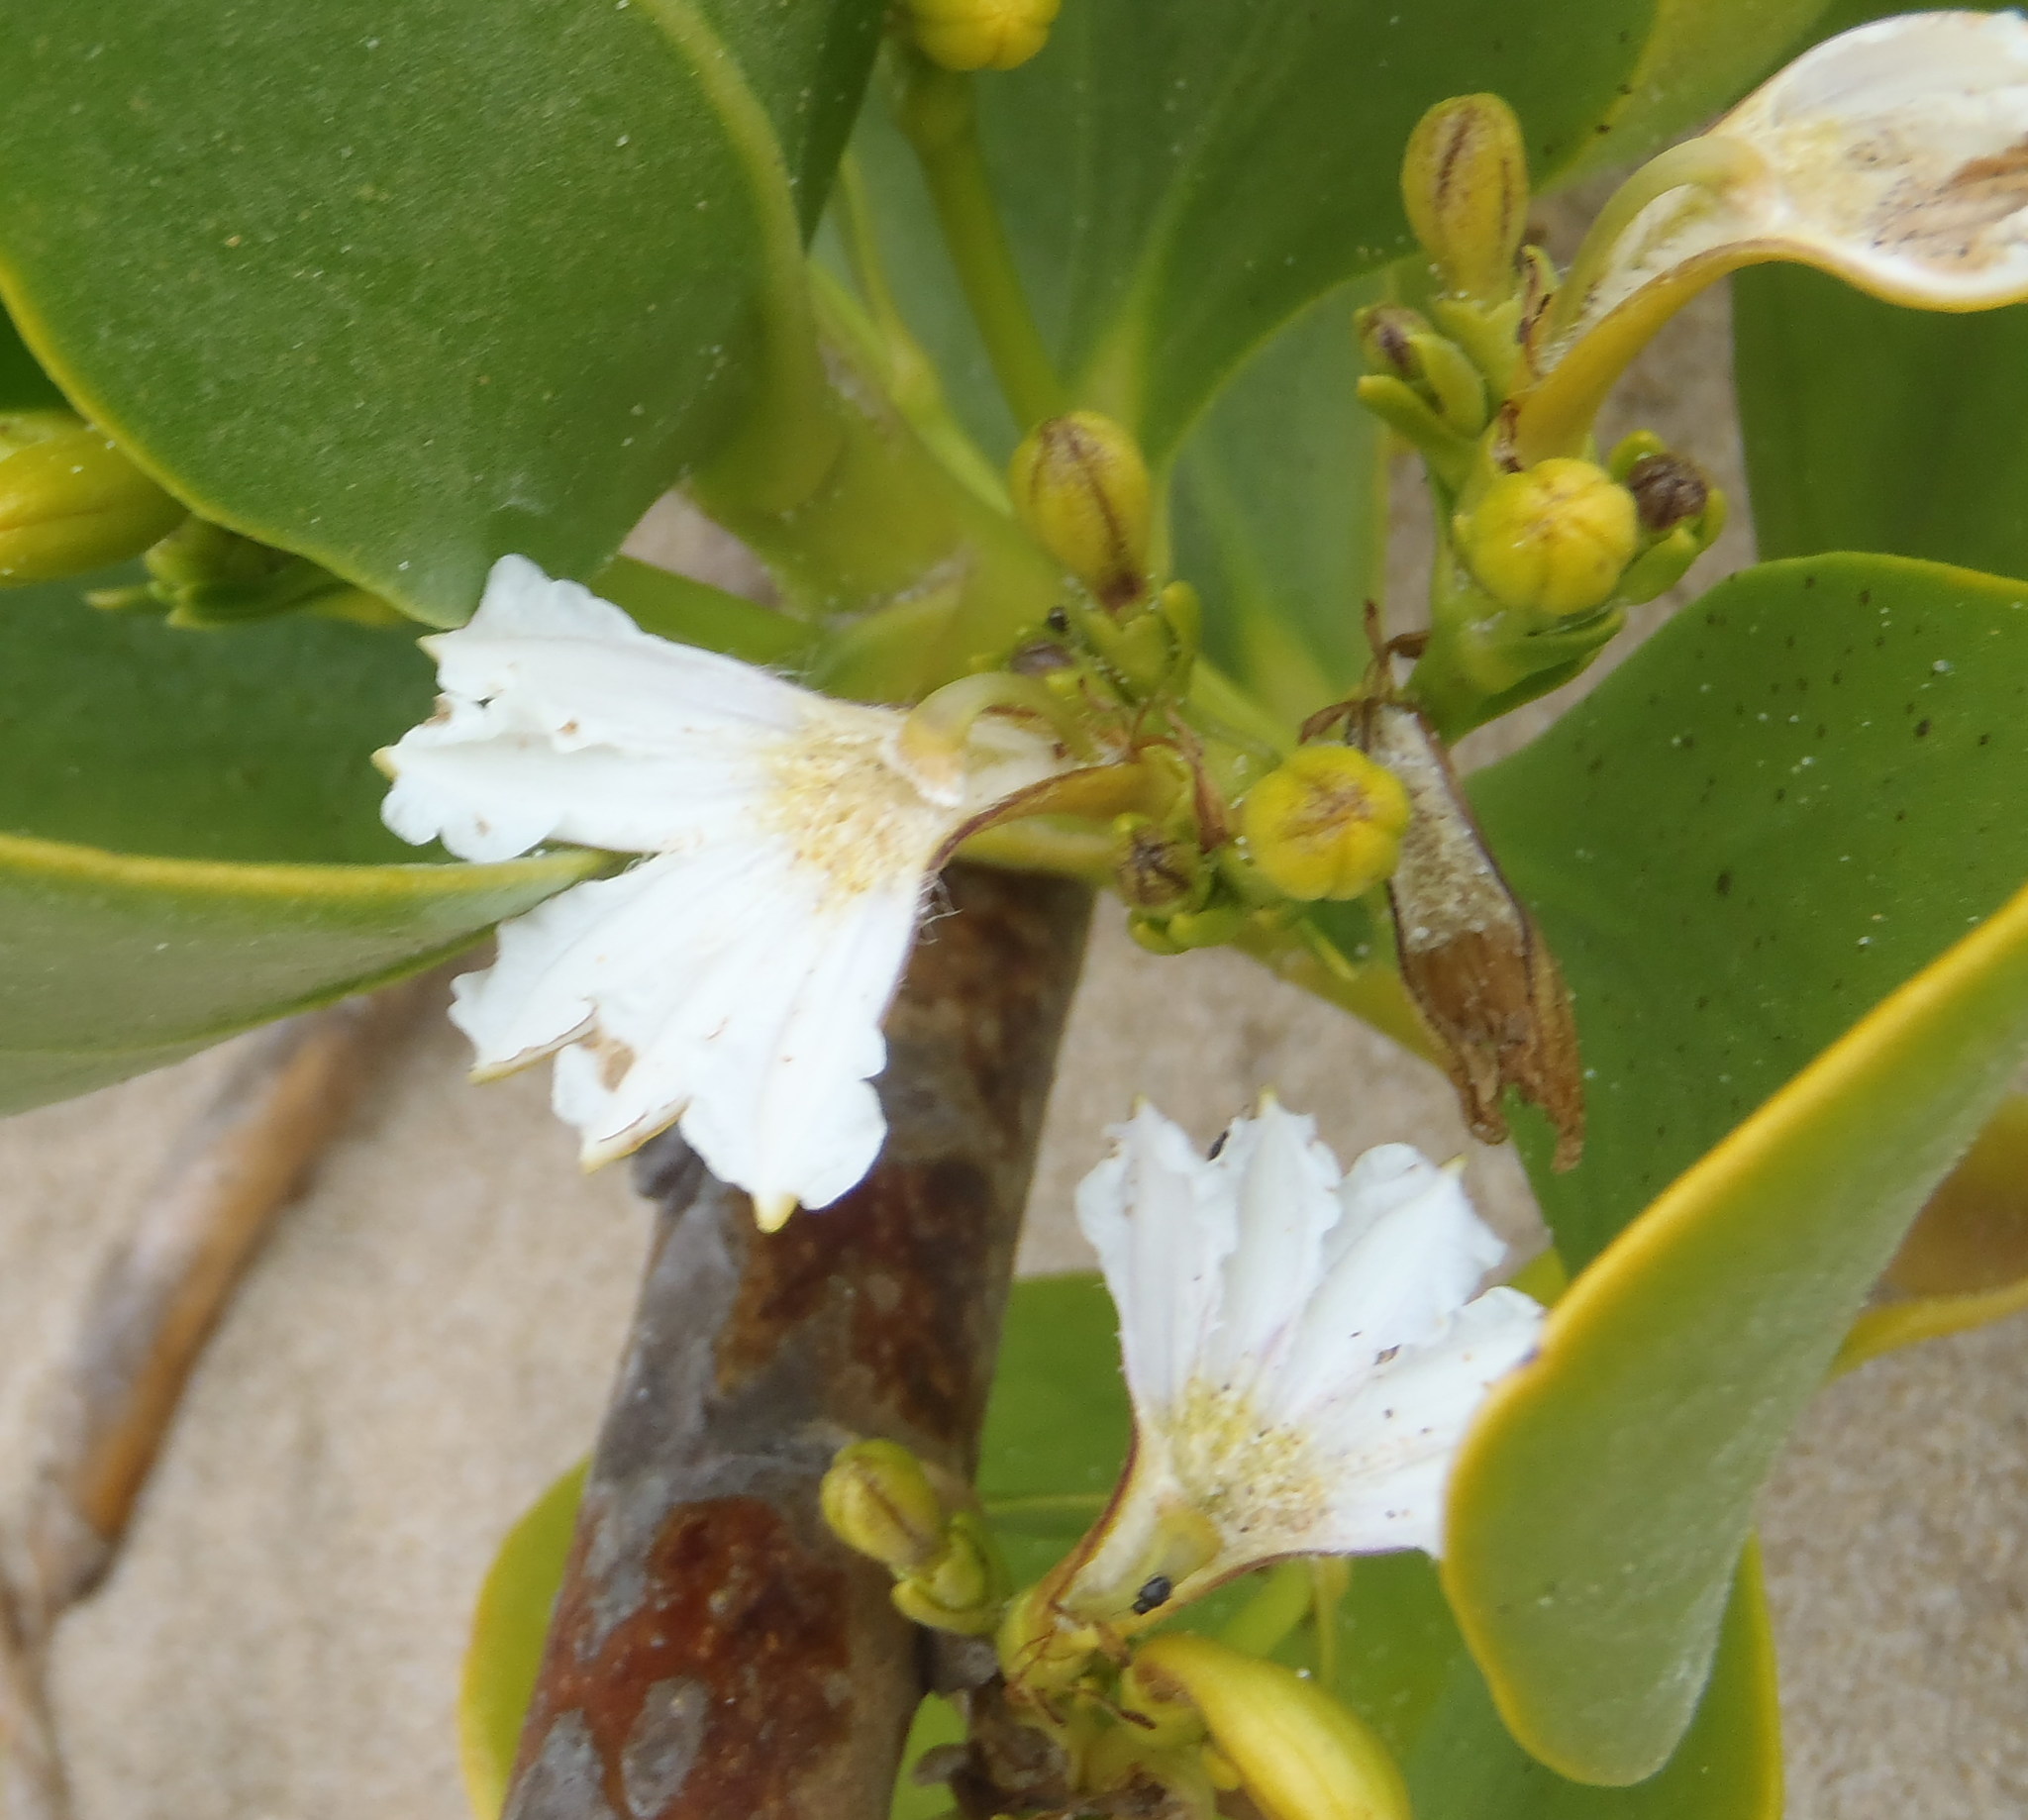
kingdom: Plantae
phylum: Tracheophyta
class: Magnoliopsida
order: Asterales
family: Goodeniaceae
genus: Scaevola
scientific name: Scaevola plumieri
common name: Gull feed
